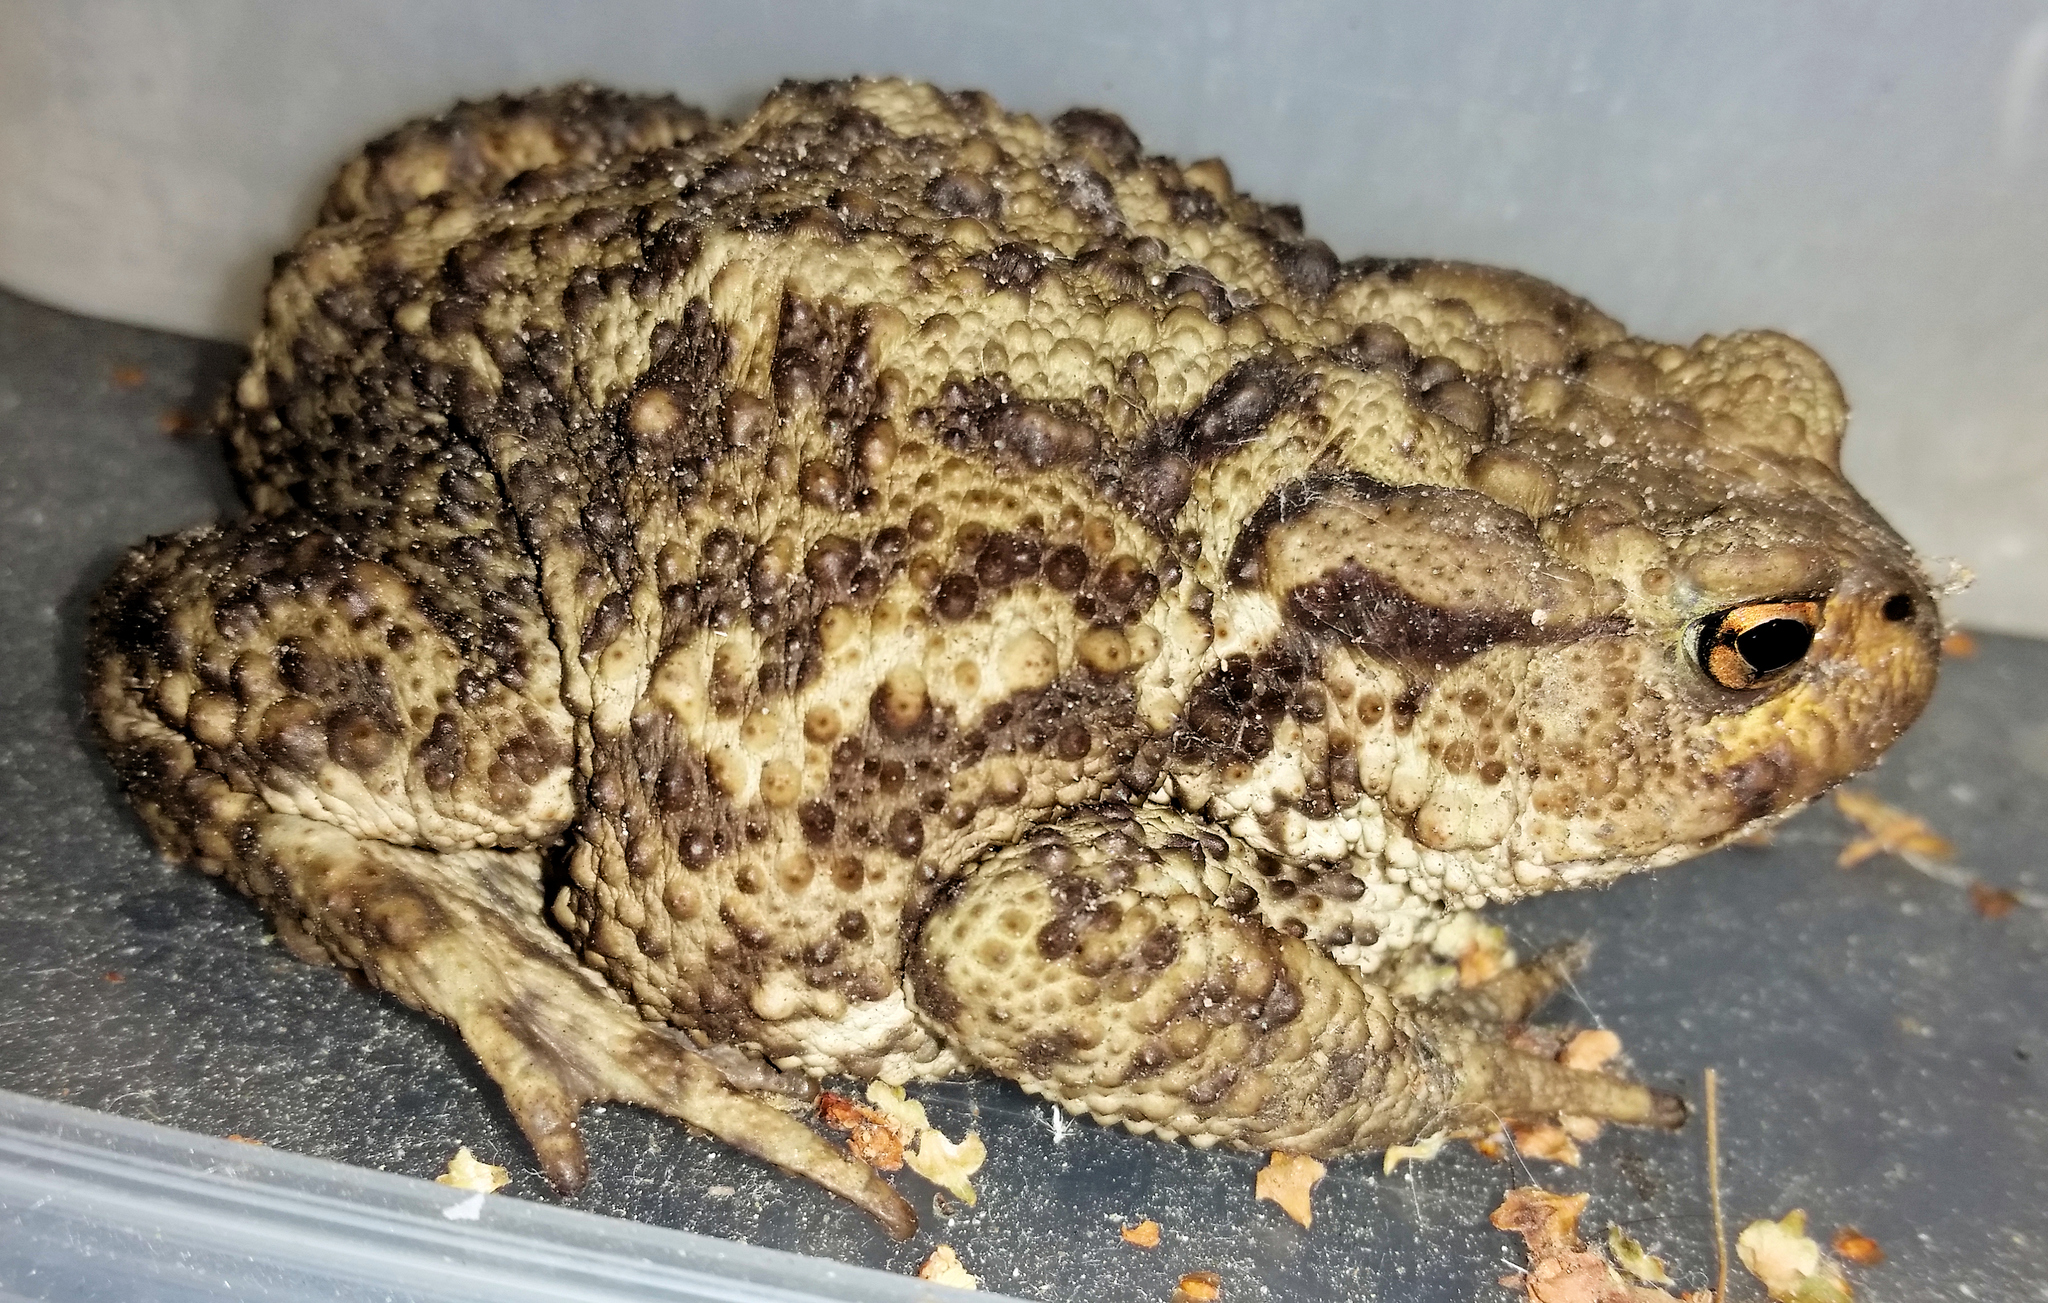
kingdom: Animalia
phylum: Chordata
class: Amphibia
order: Anura
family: Bufonidae
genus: Bufo
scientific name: Bufo bufo
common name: Common toad
